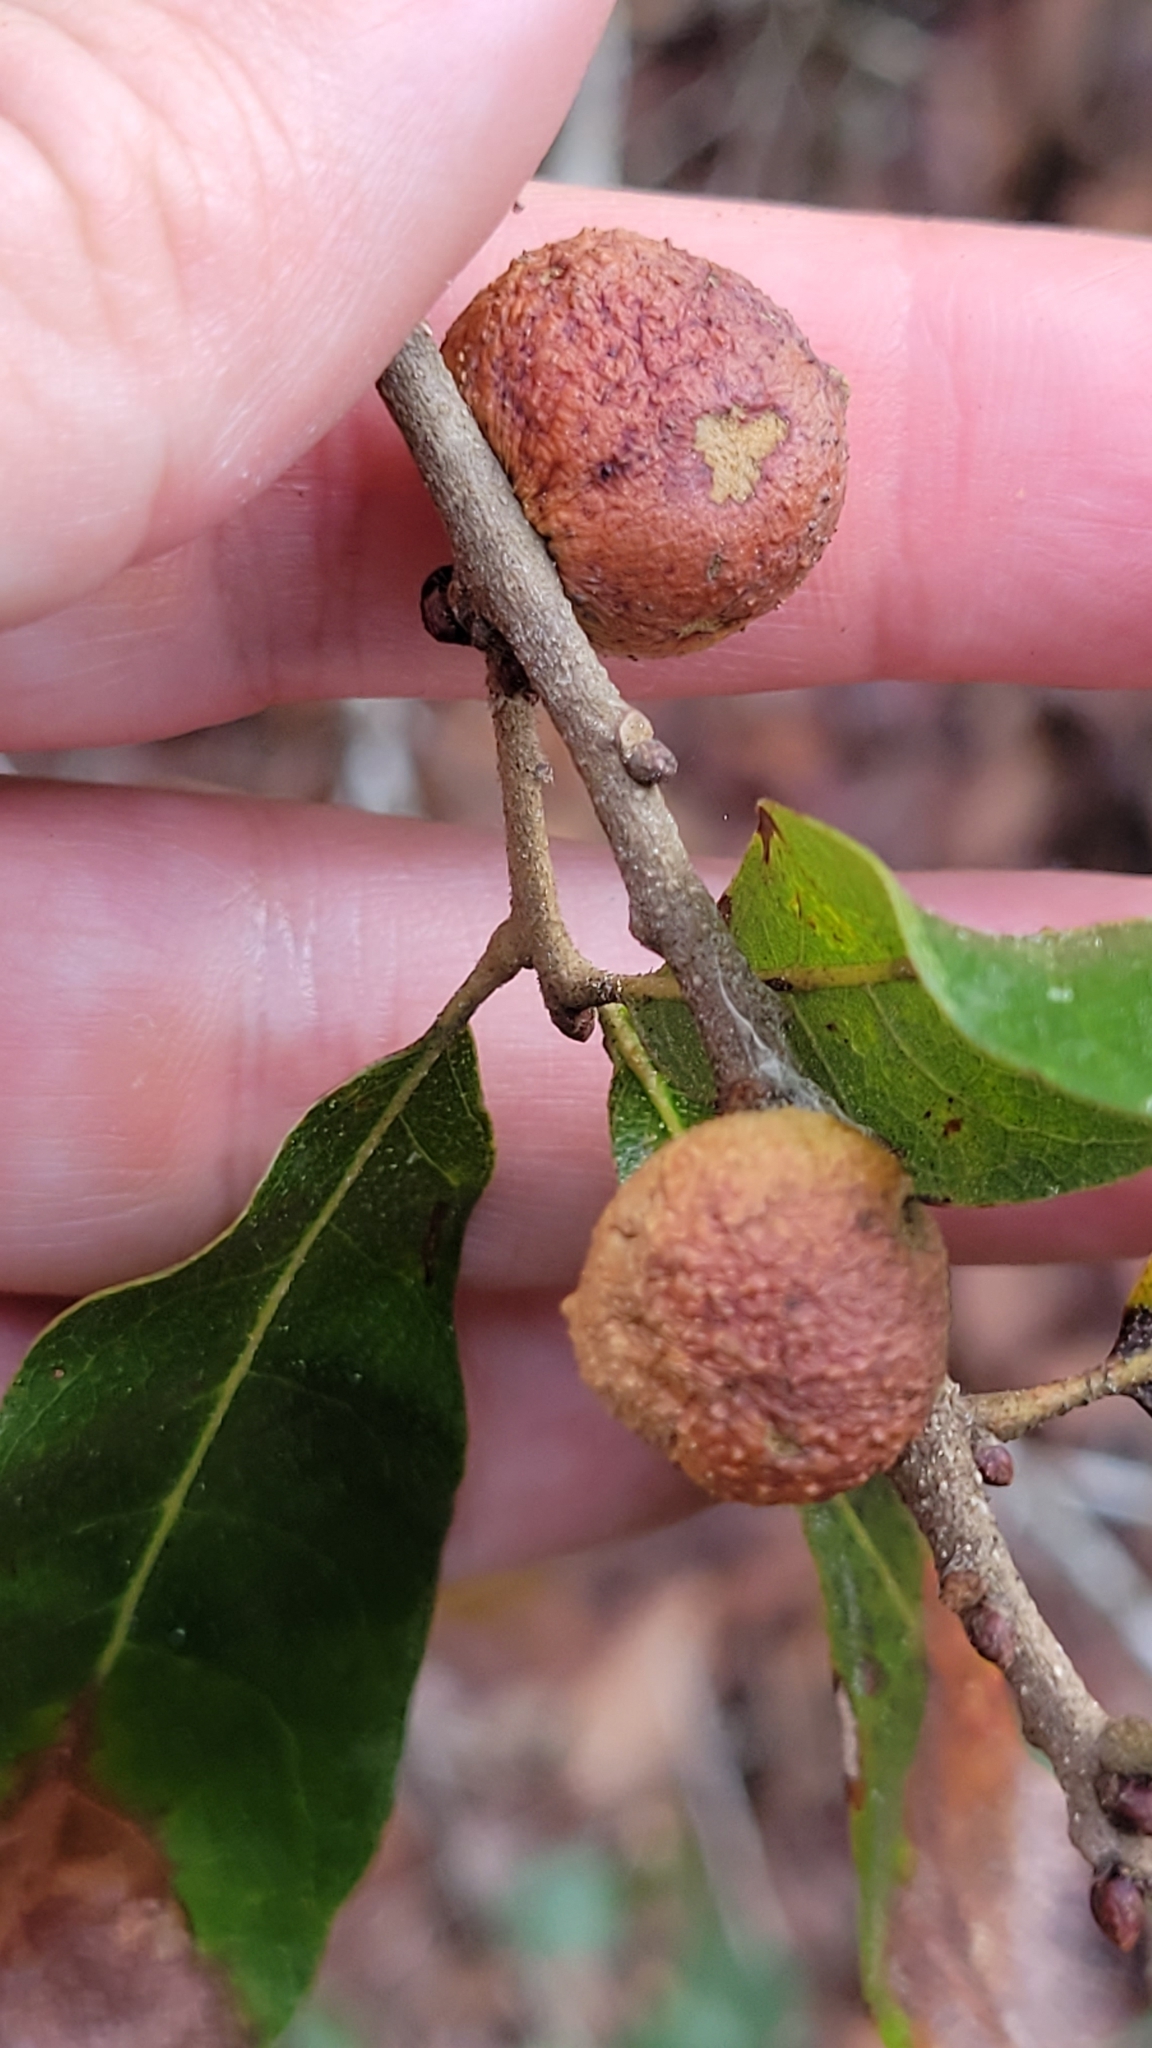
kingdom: Animalia
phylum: Arthropoda
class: Insecta
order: Hymenoptera
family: Cynipidae
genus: Disholcaspis
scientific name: Disholcaspis
